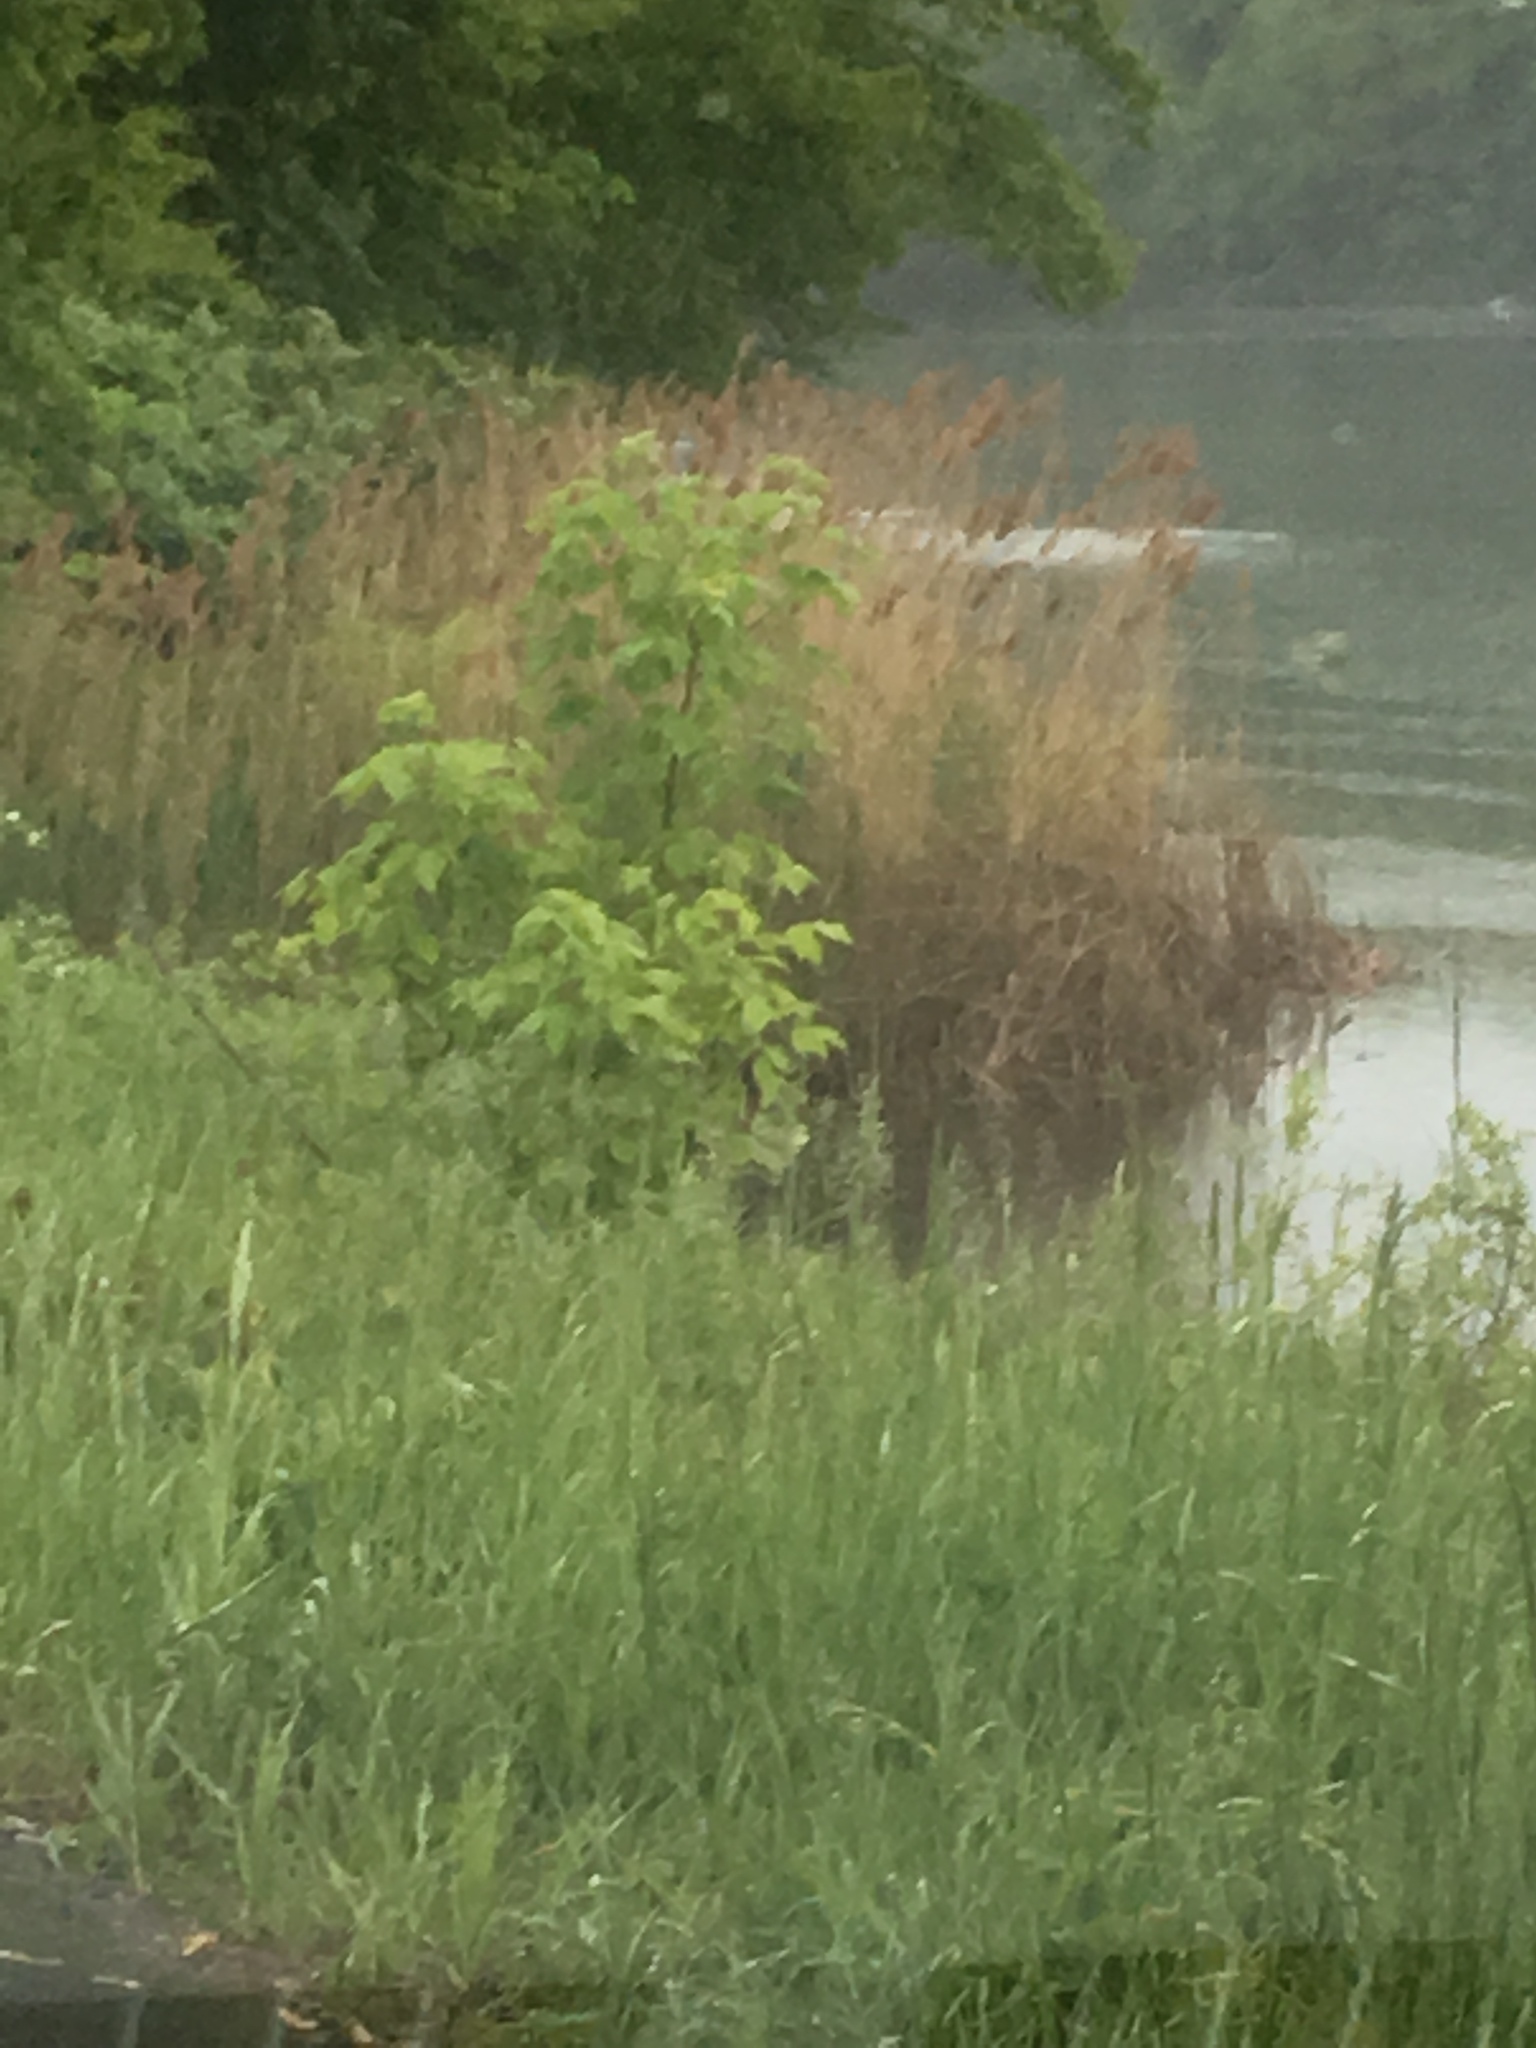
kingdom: Plantae
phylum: Tracheophyta
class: Liliopsida
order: Poales
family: Poaceae
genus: Phragmites
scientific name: Phragmites australis
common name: Common reed
